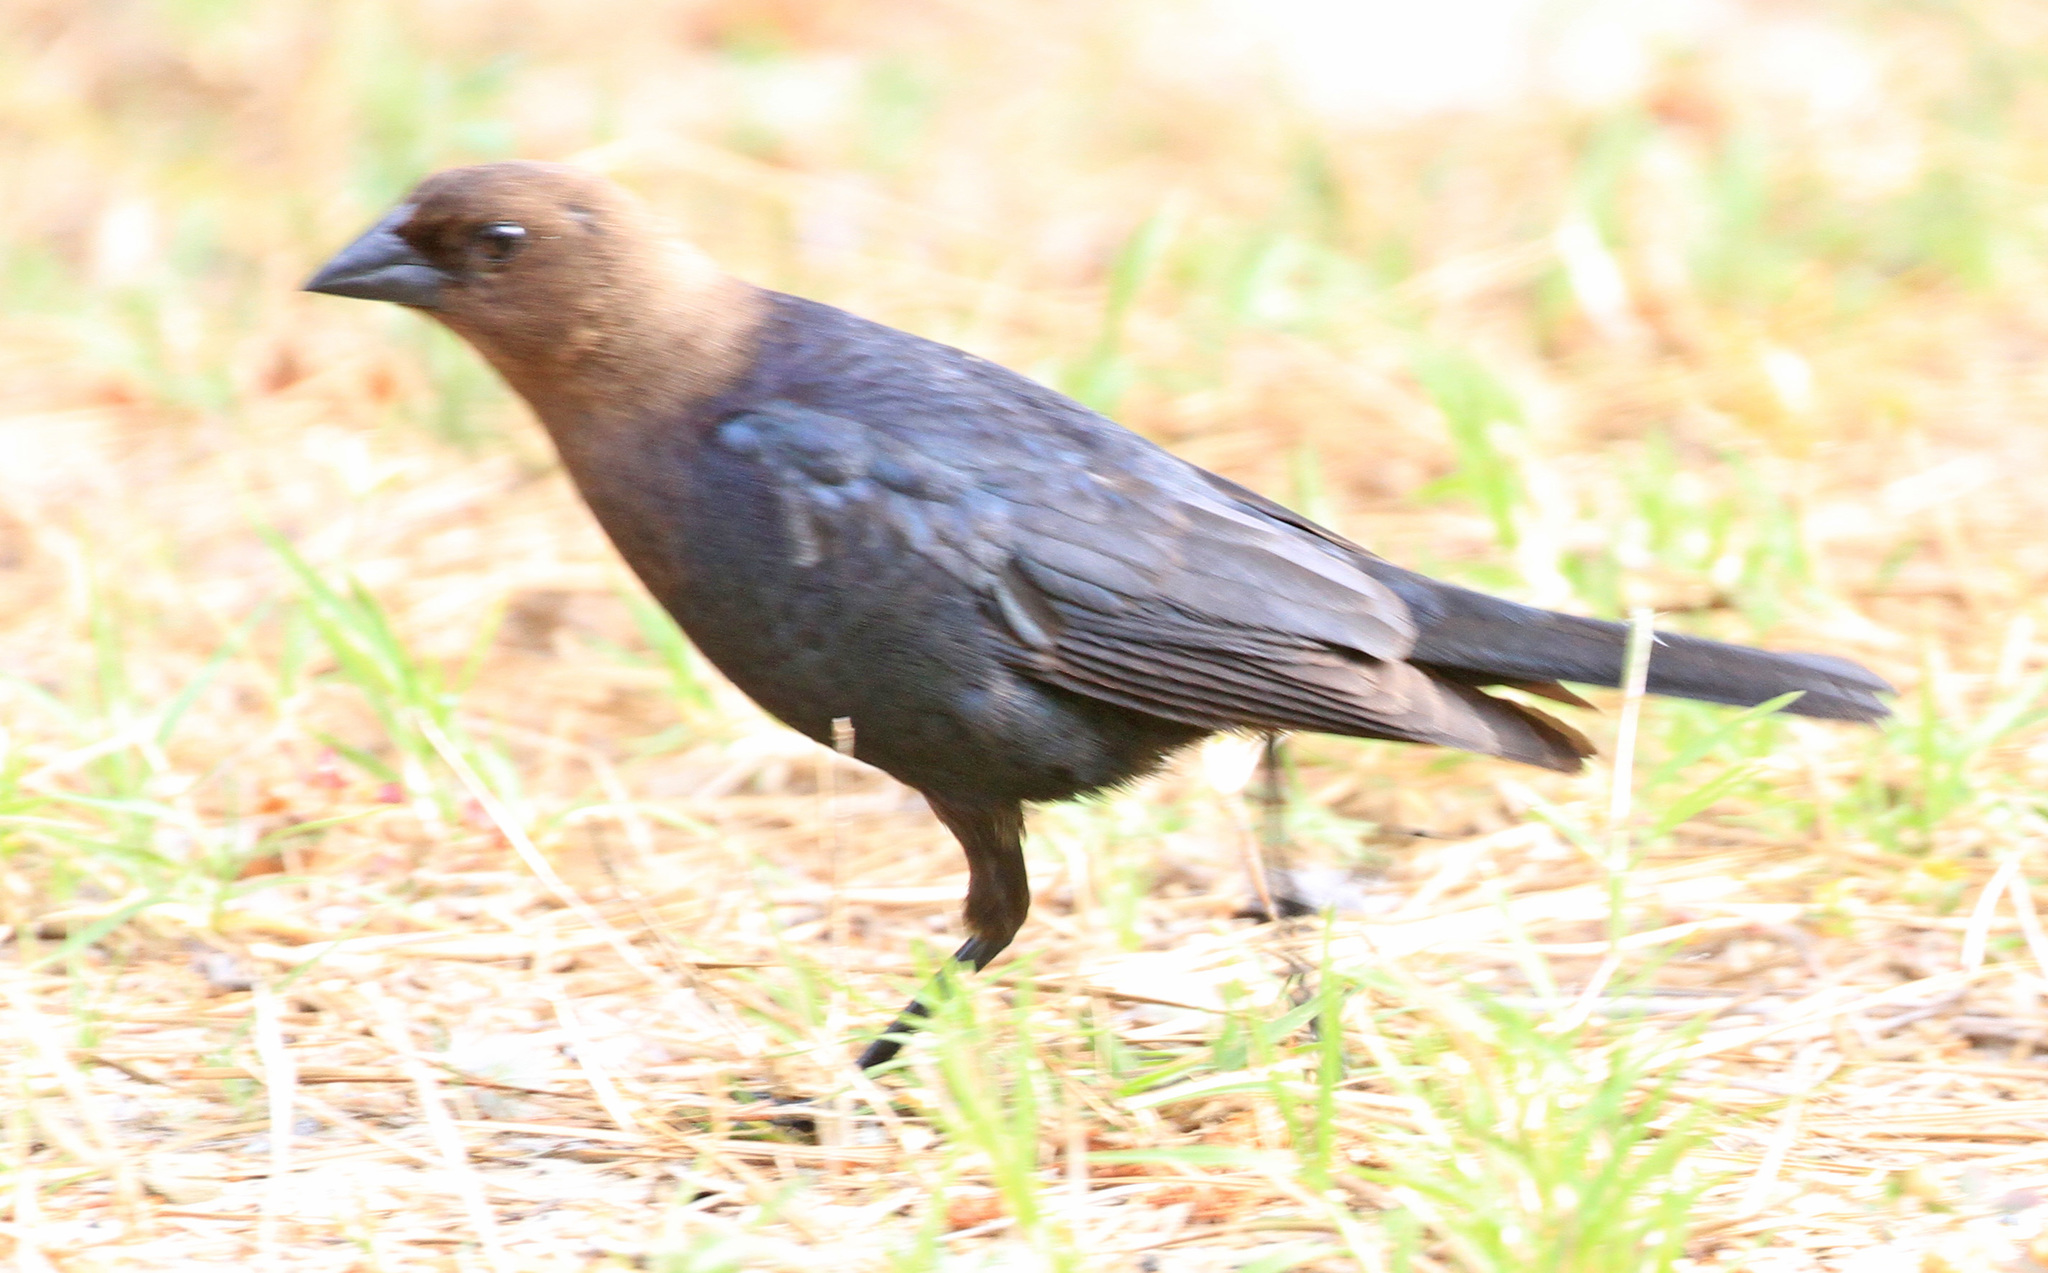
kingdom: Animalia
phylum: Chordata
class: Aves
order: Passeriformes
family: Icteridae
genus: Molothrus
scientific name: Molothrus ater
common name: Brown-headed cowbird
